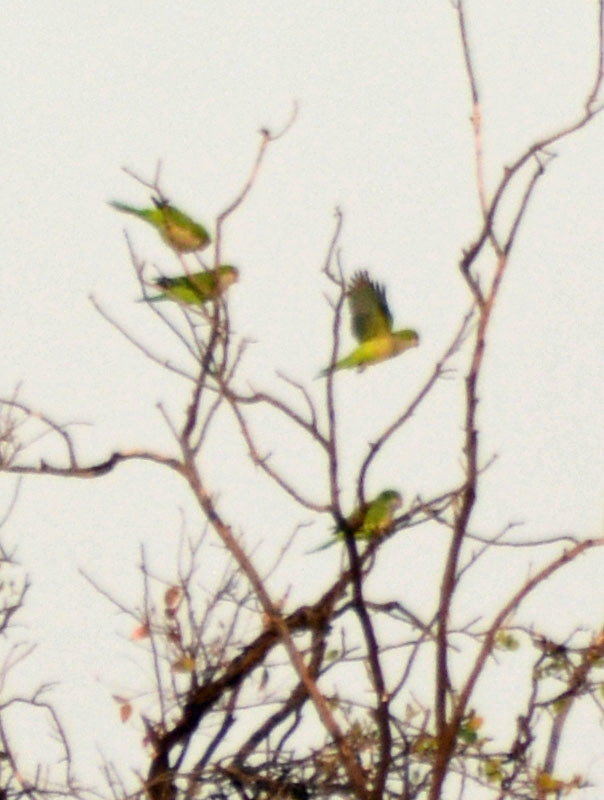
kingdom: Animalia
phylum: Chordata
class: Aves
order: Psittaciformes
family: Psittacidae
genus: Myiopsitta
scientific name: Myiopsitta monachus
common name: Monk parakeet
